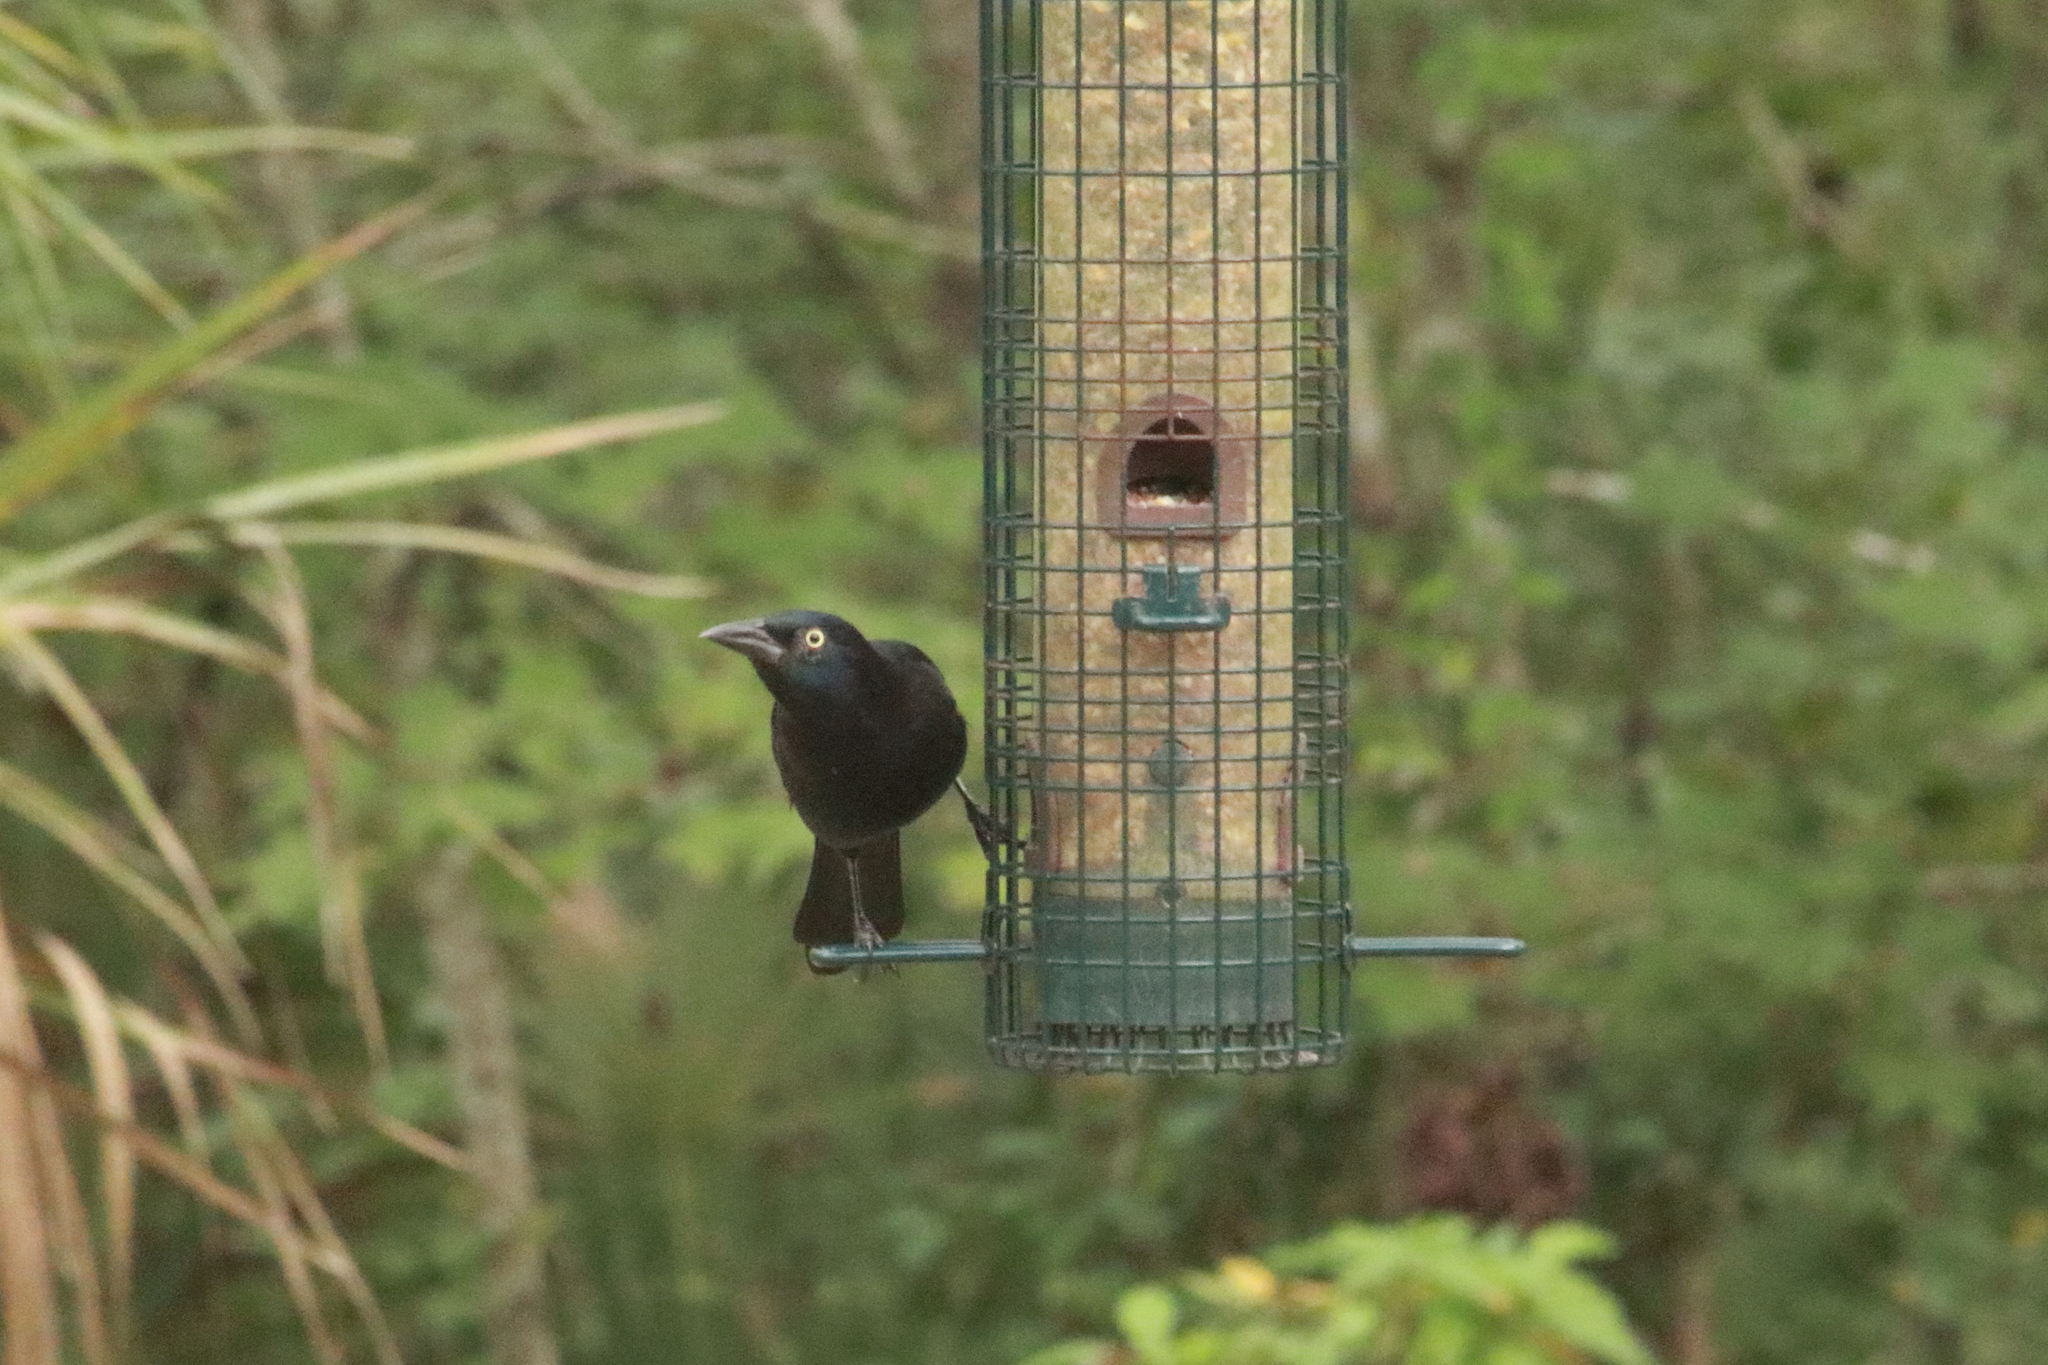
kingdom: Animalia
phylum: Chordata
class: Aves
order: Passeriformes
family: Icteridae
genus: Quiscalus
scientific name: Quiscalus quiscula
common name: Common grackle
